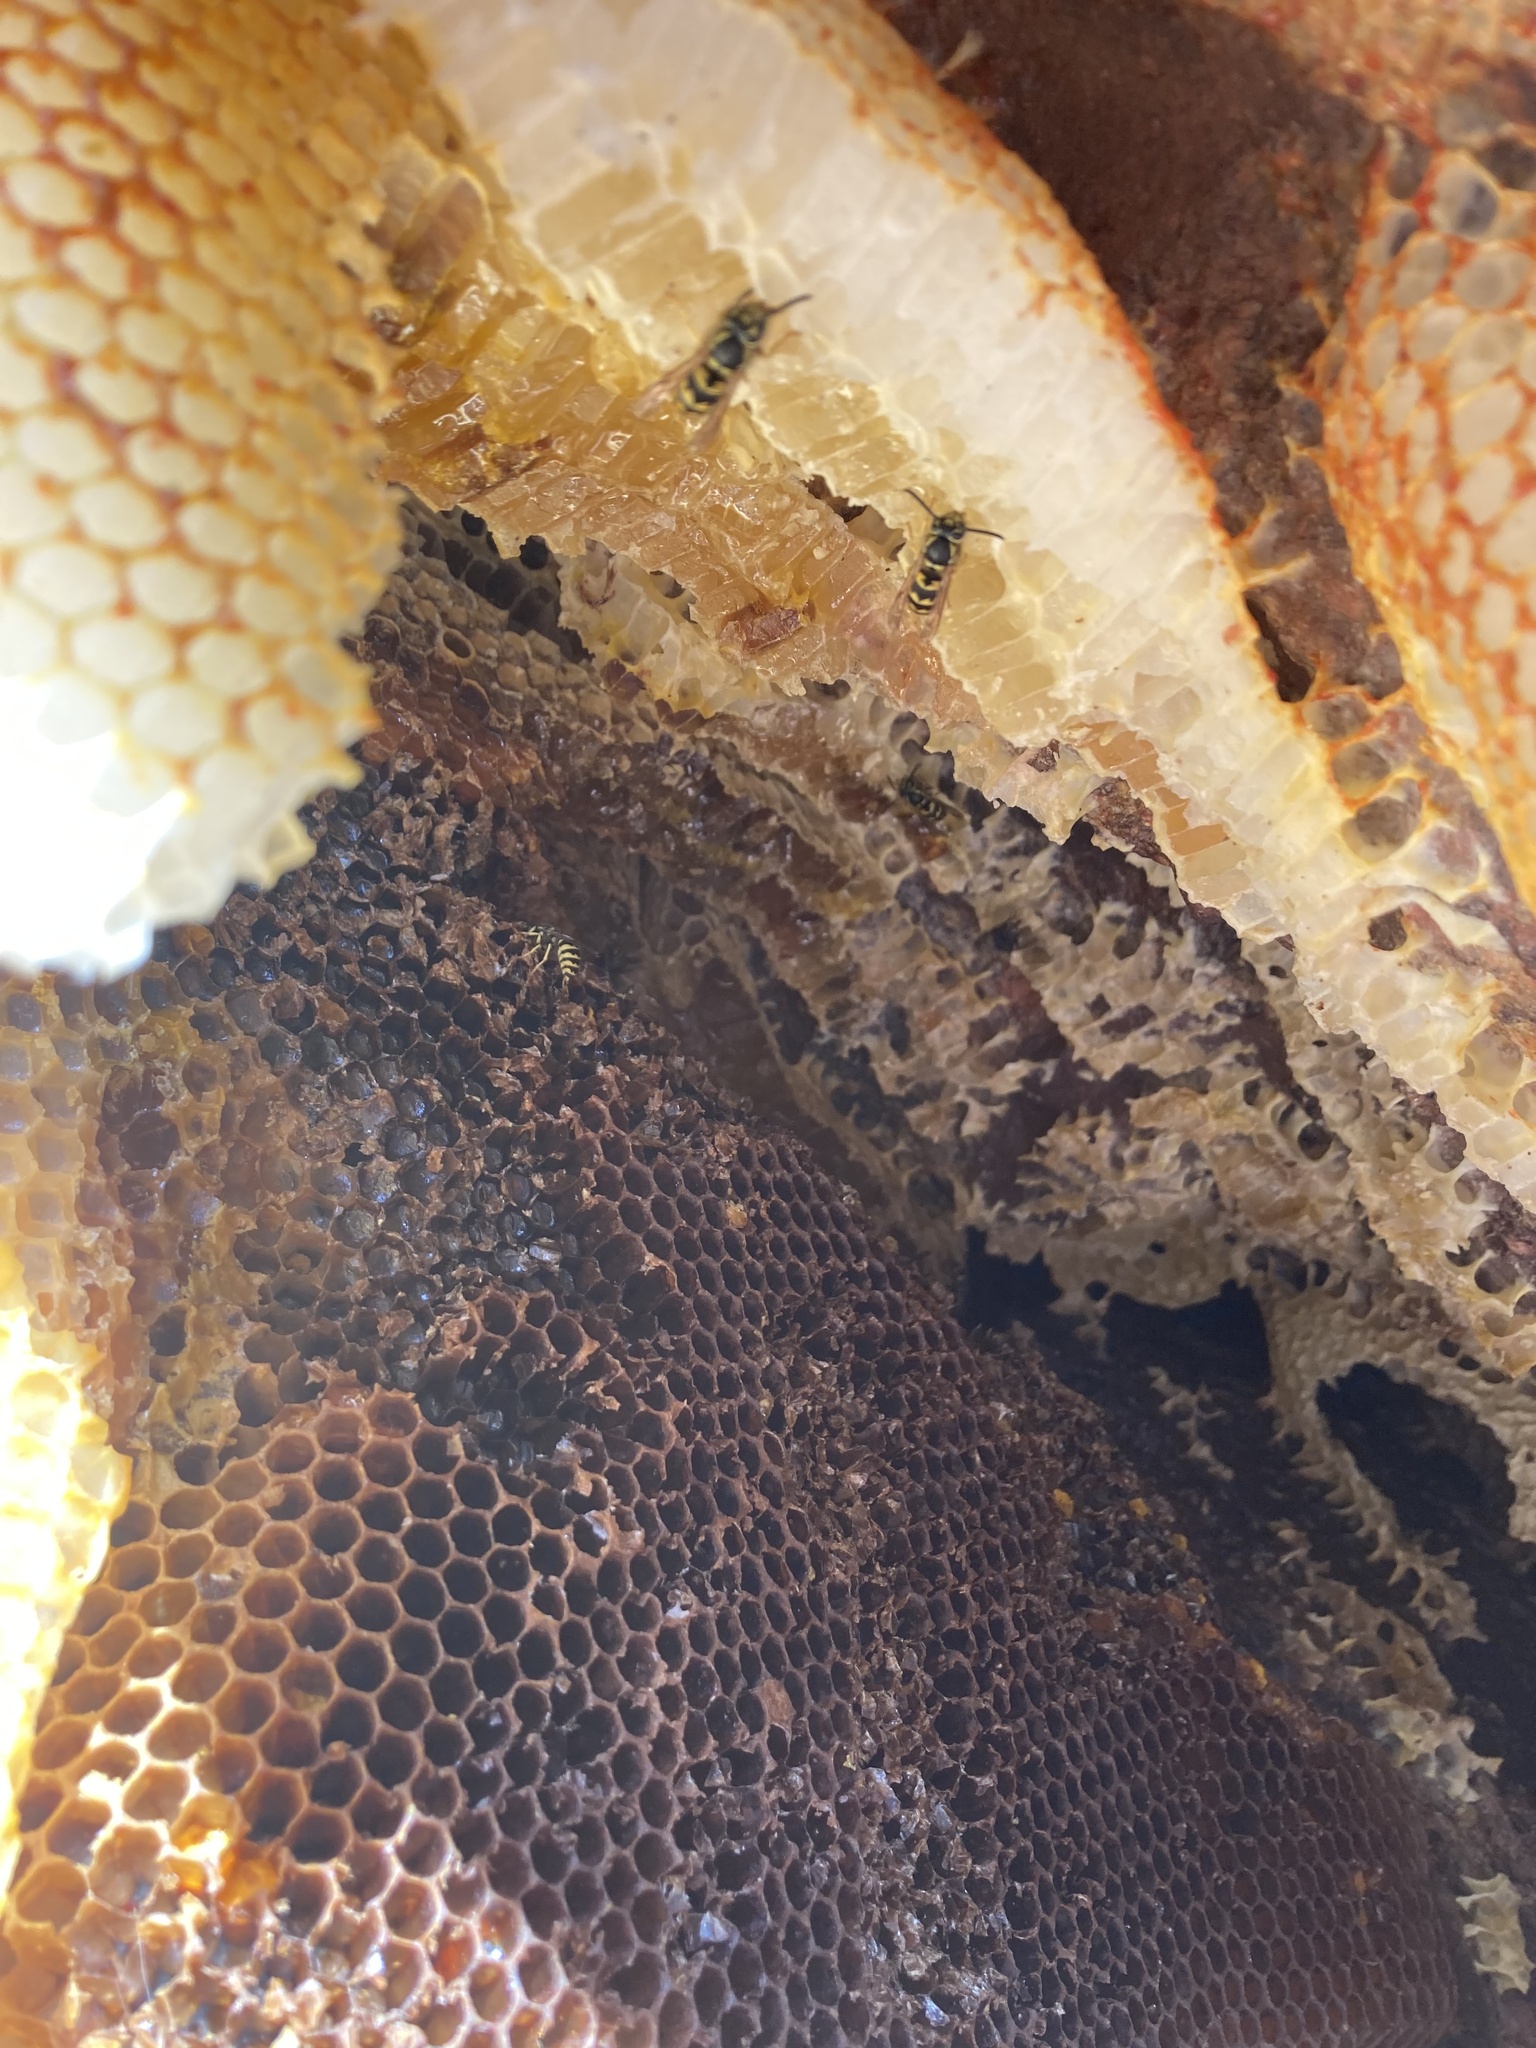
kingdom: Animalia
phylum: Arthropoda
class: Insecta
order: Hymenoptera
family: Apidae
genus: Apis
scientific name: Apis mellifera
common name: Honey bee
